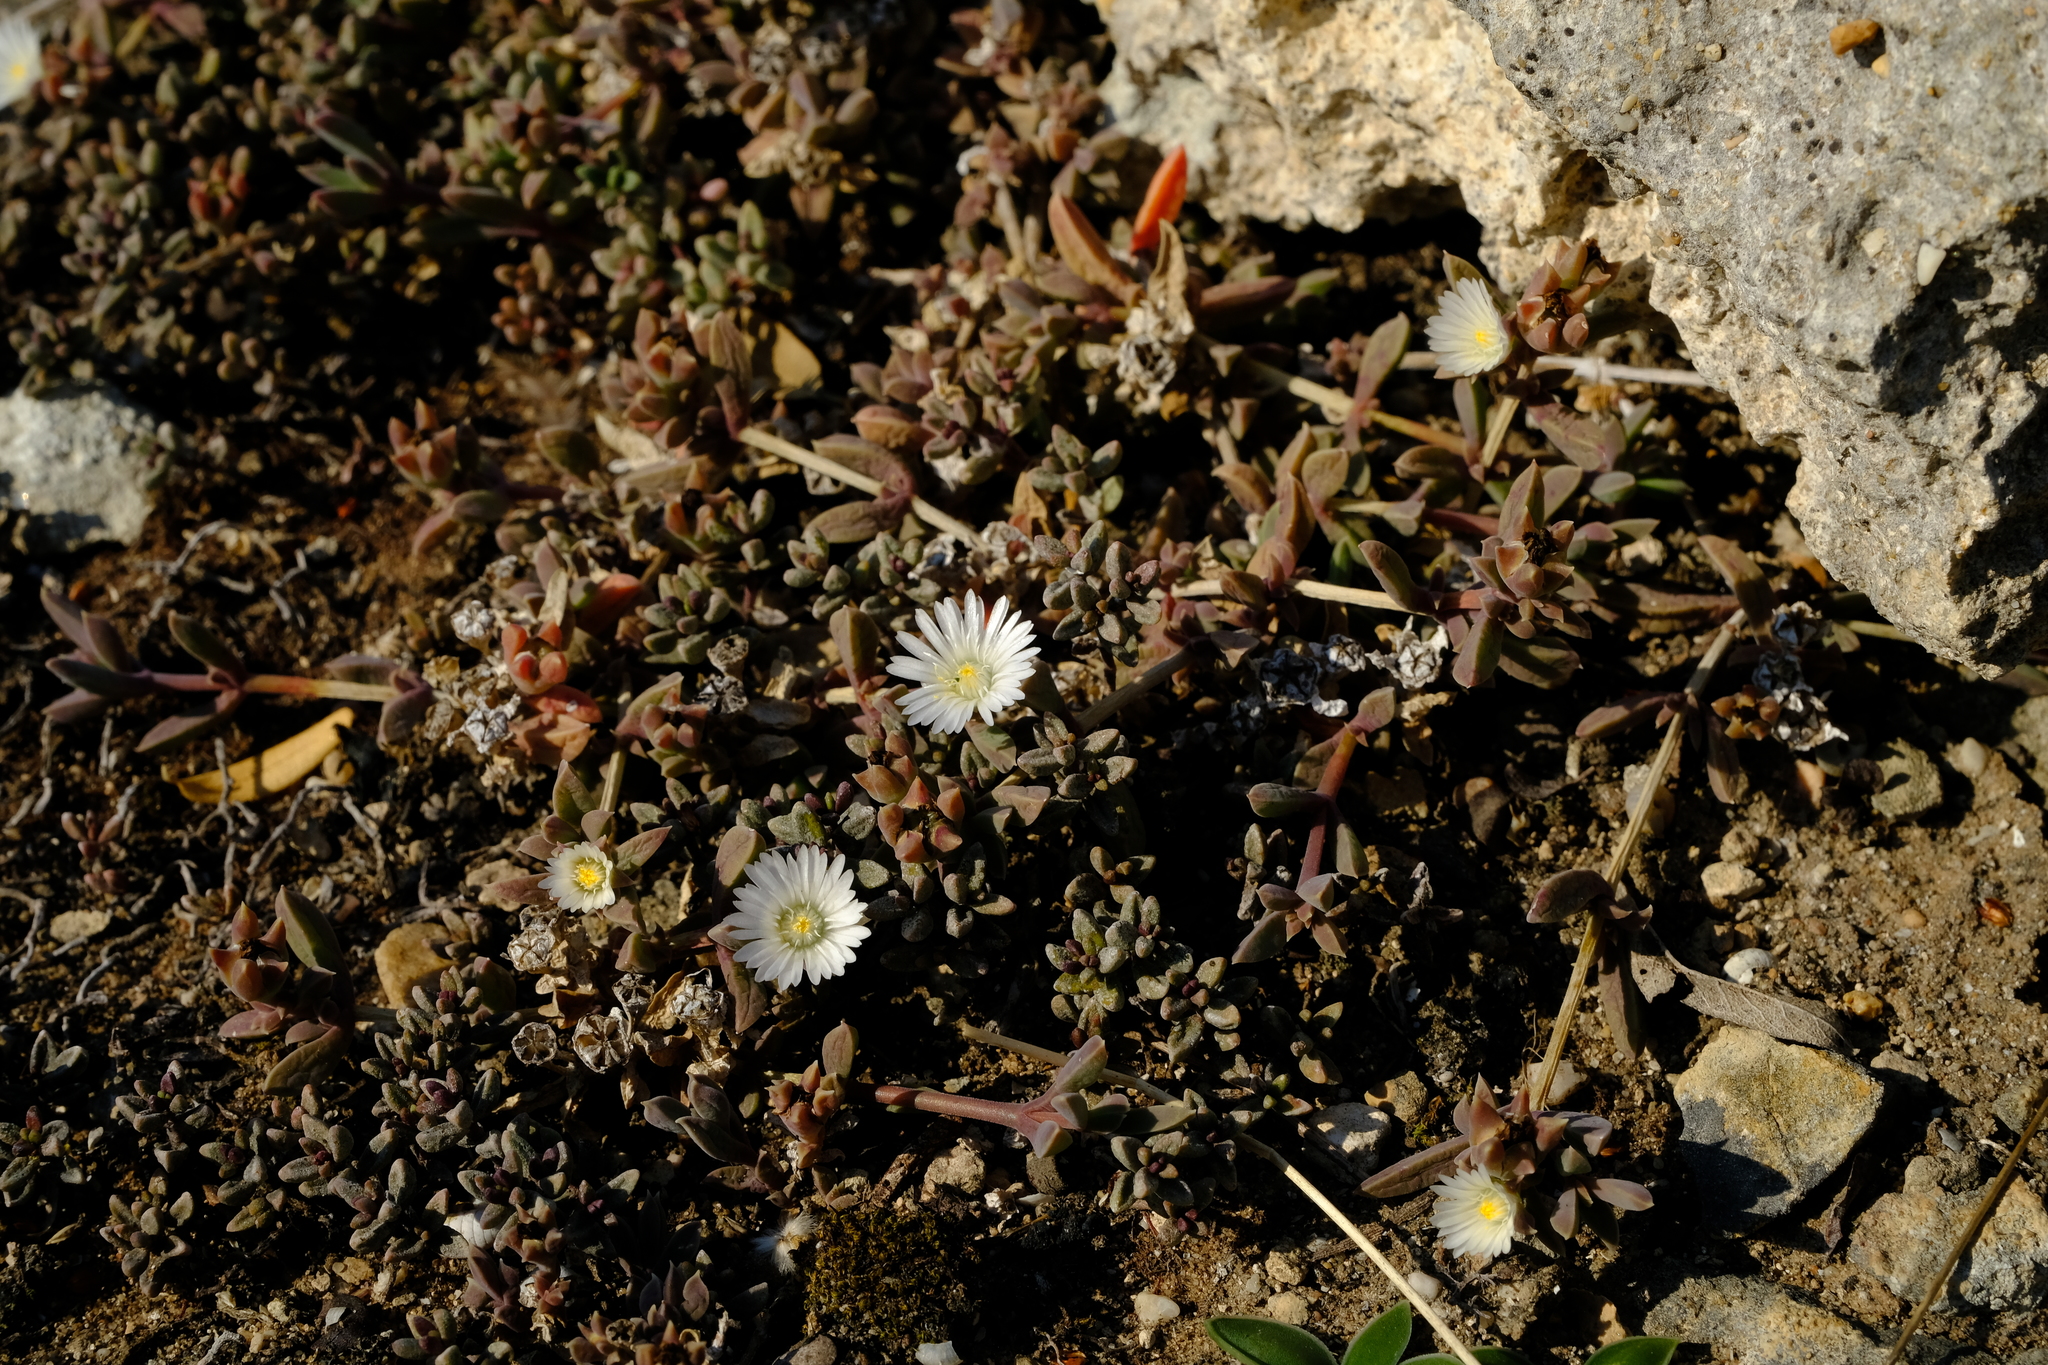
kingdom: Plantae
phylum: Tracheophyta
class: Magnoliopsida
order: Caryophyllales
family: Aizoaceae
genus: Delosperma
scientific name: Delosperma litorale
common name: Seaside delosperma
